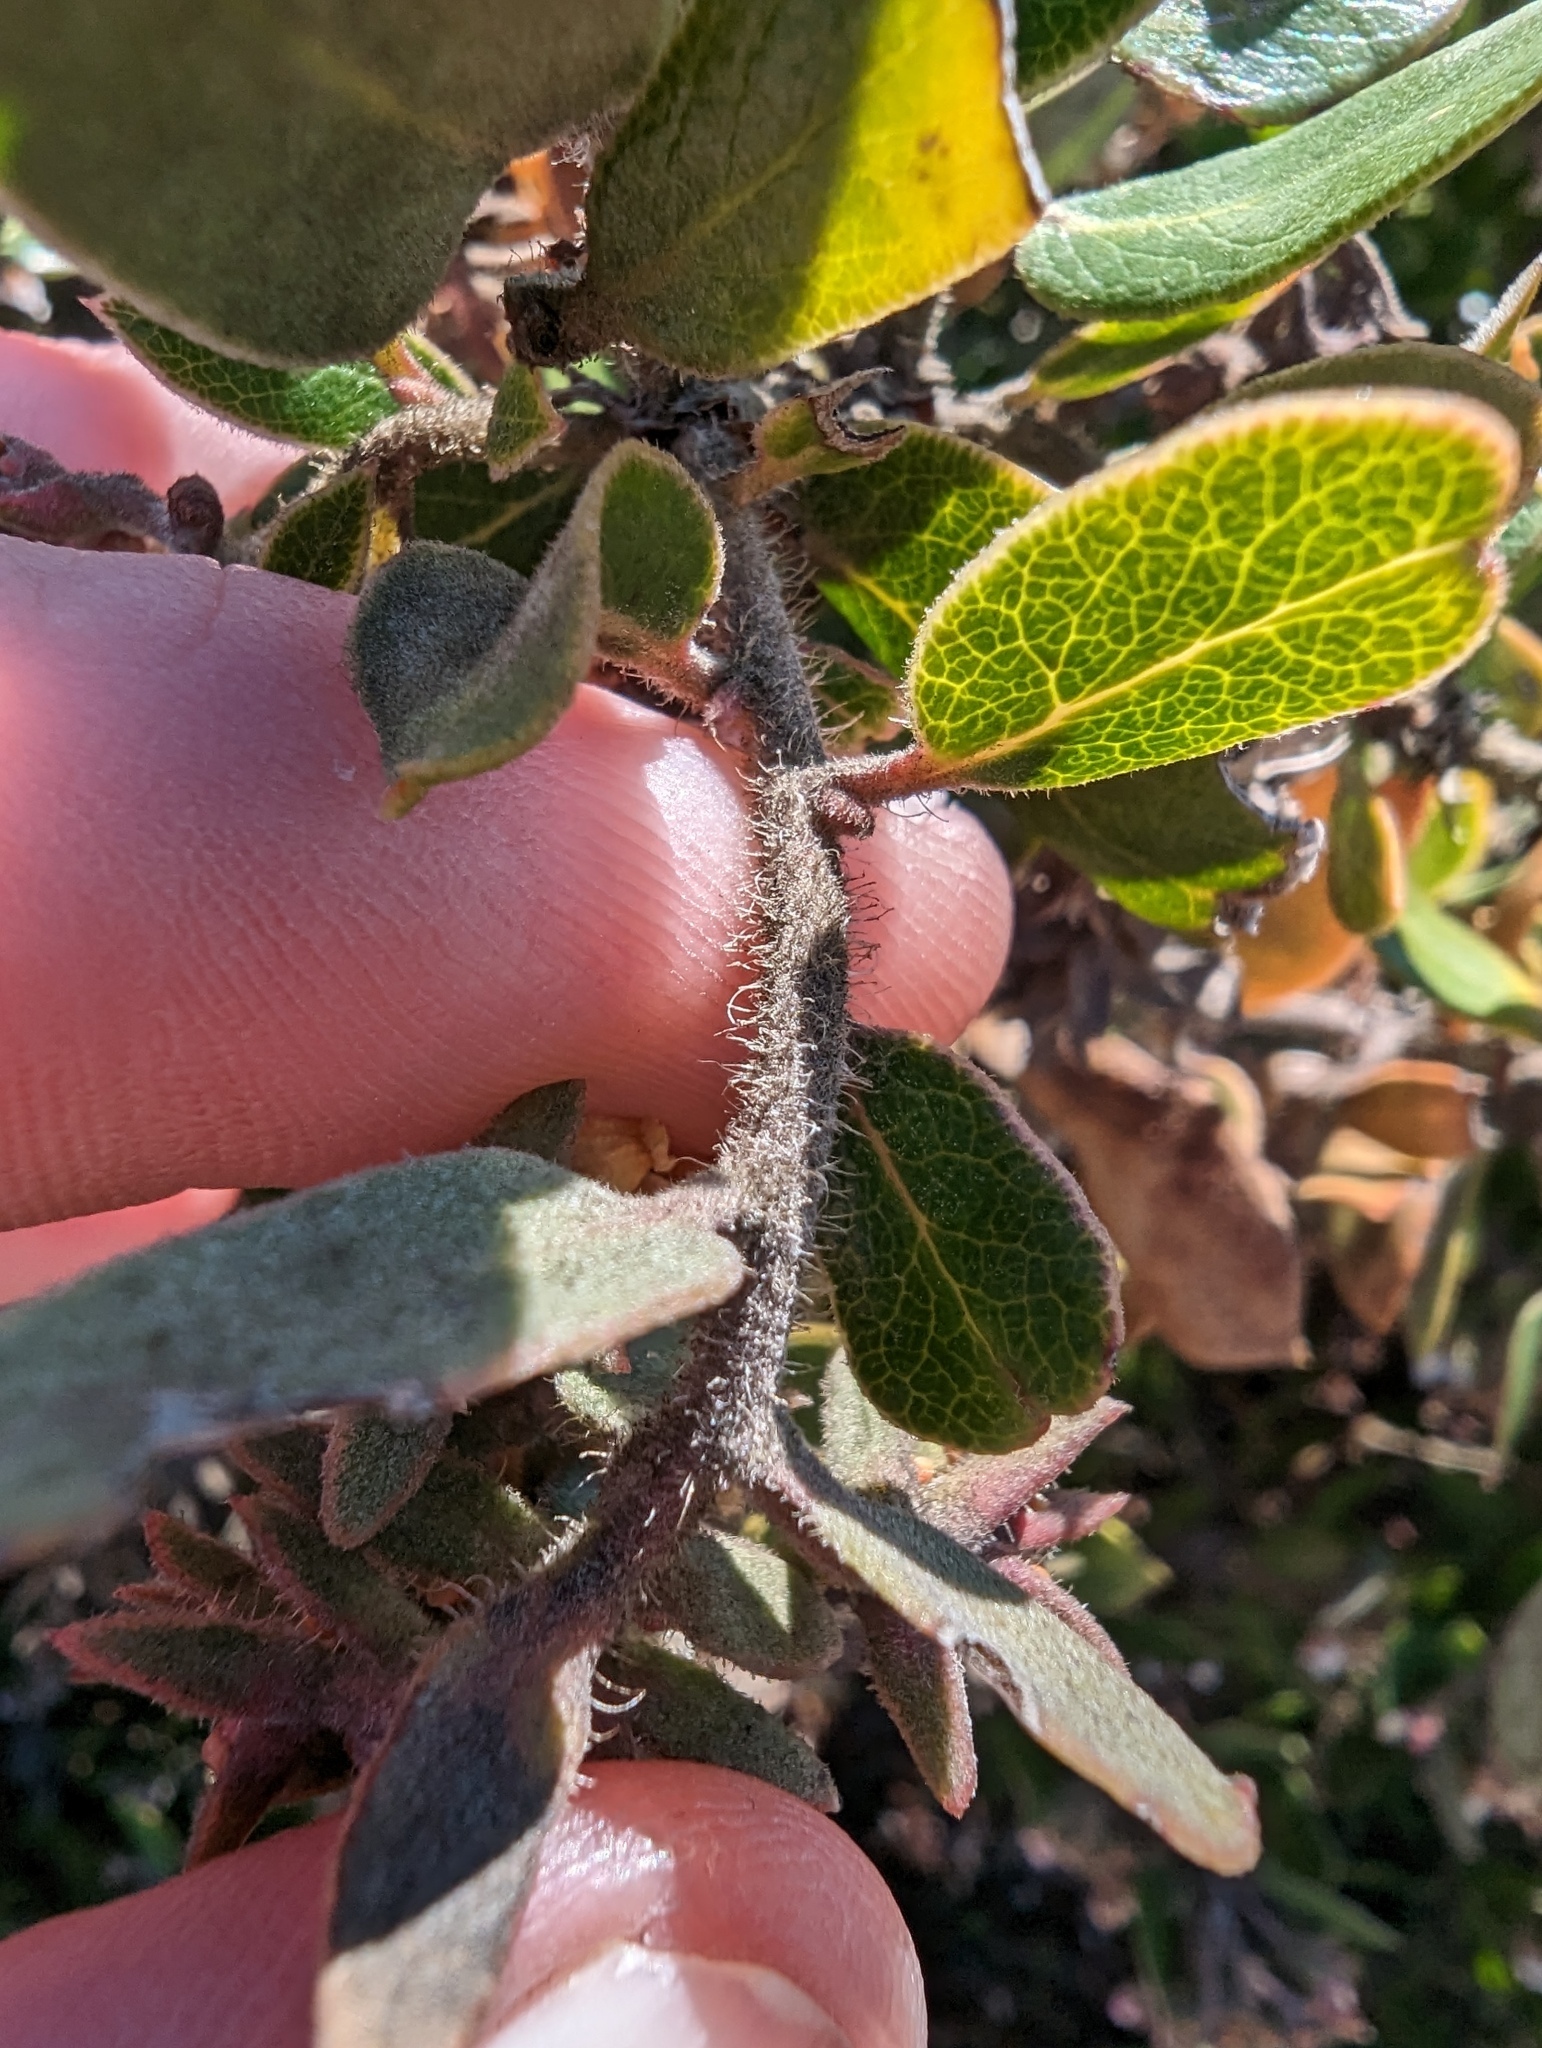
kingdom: Plantae
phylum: Tracheophyta
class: Magnoliopsida
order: Ericales
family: Ericaceae
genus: Arctostaphylos
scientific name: Arctostaphylos tomentosa
